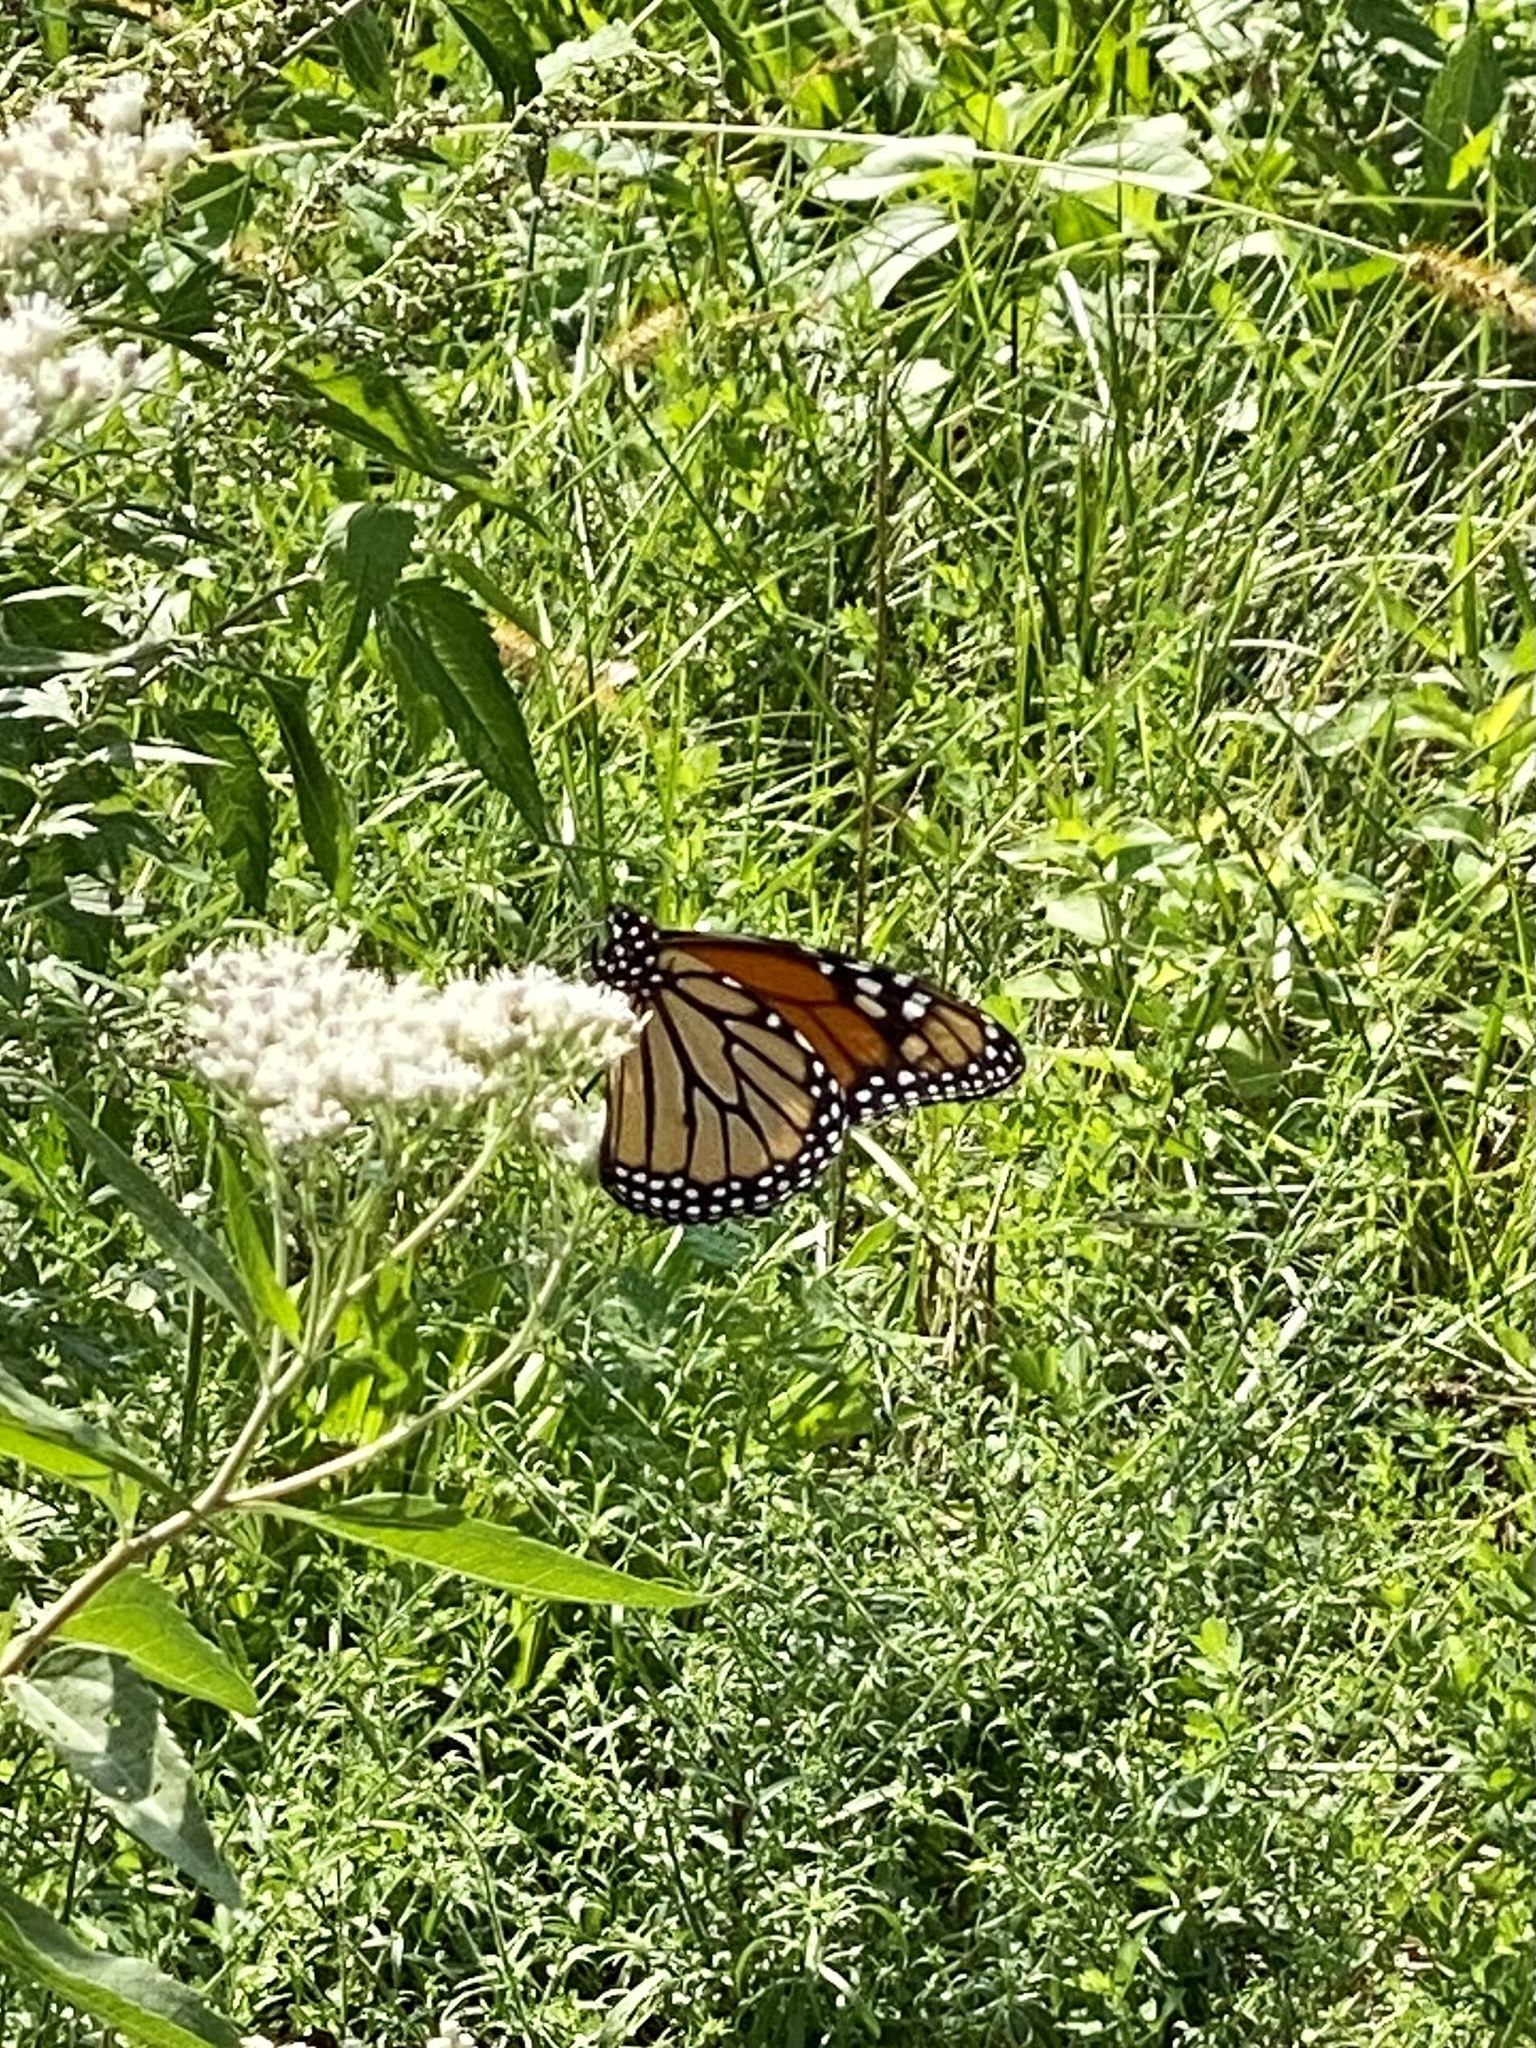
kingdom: Animalia
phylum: Arthropoda
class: Insecta
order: Lepidoptera
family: Nymphalidae
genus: Danaus
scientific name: Danaus plexippus
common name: Monarch
